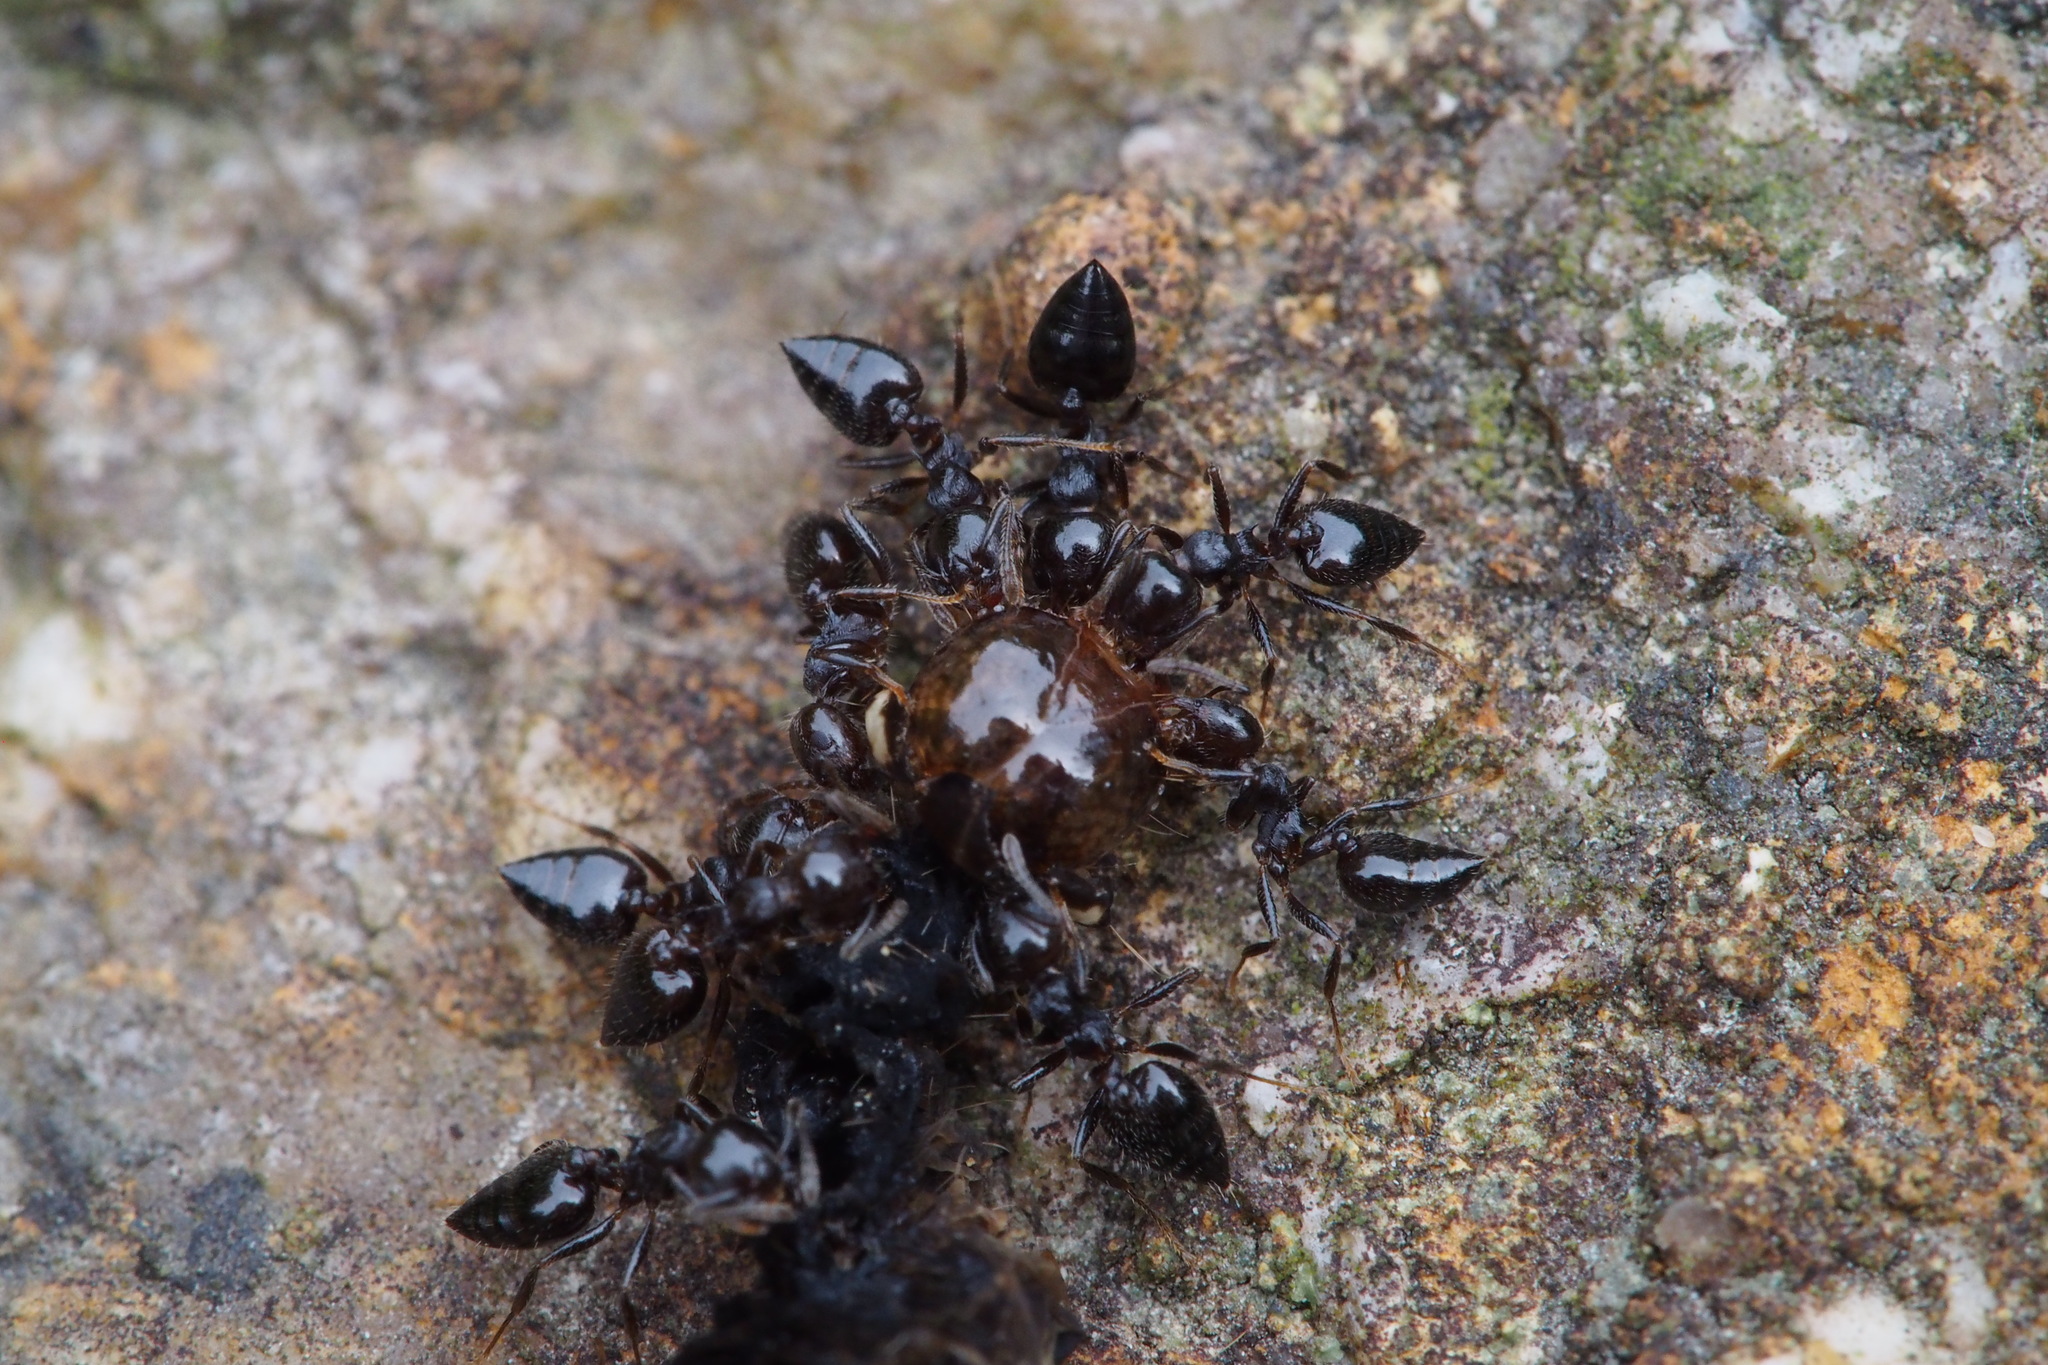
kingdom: Animalia
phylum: Arthropoda
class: Insecta
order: Hymenoptera
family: Formicidae
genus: Crematogaster
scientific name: Crematogaster teranishii
